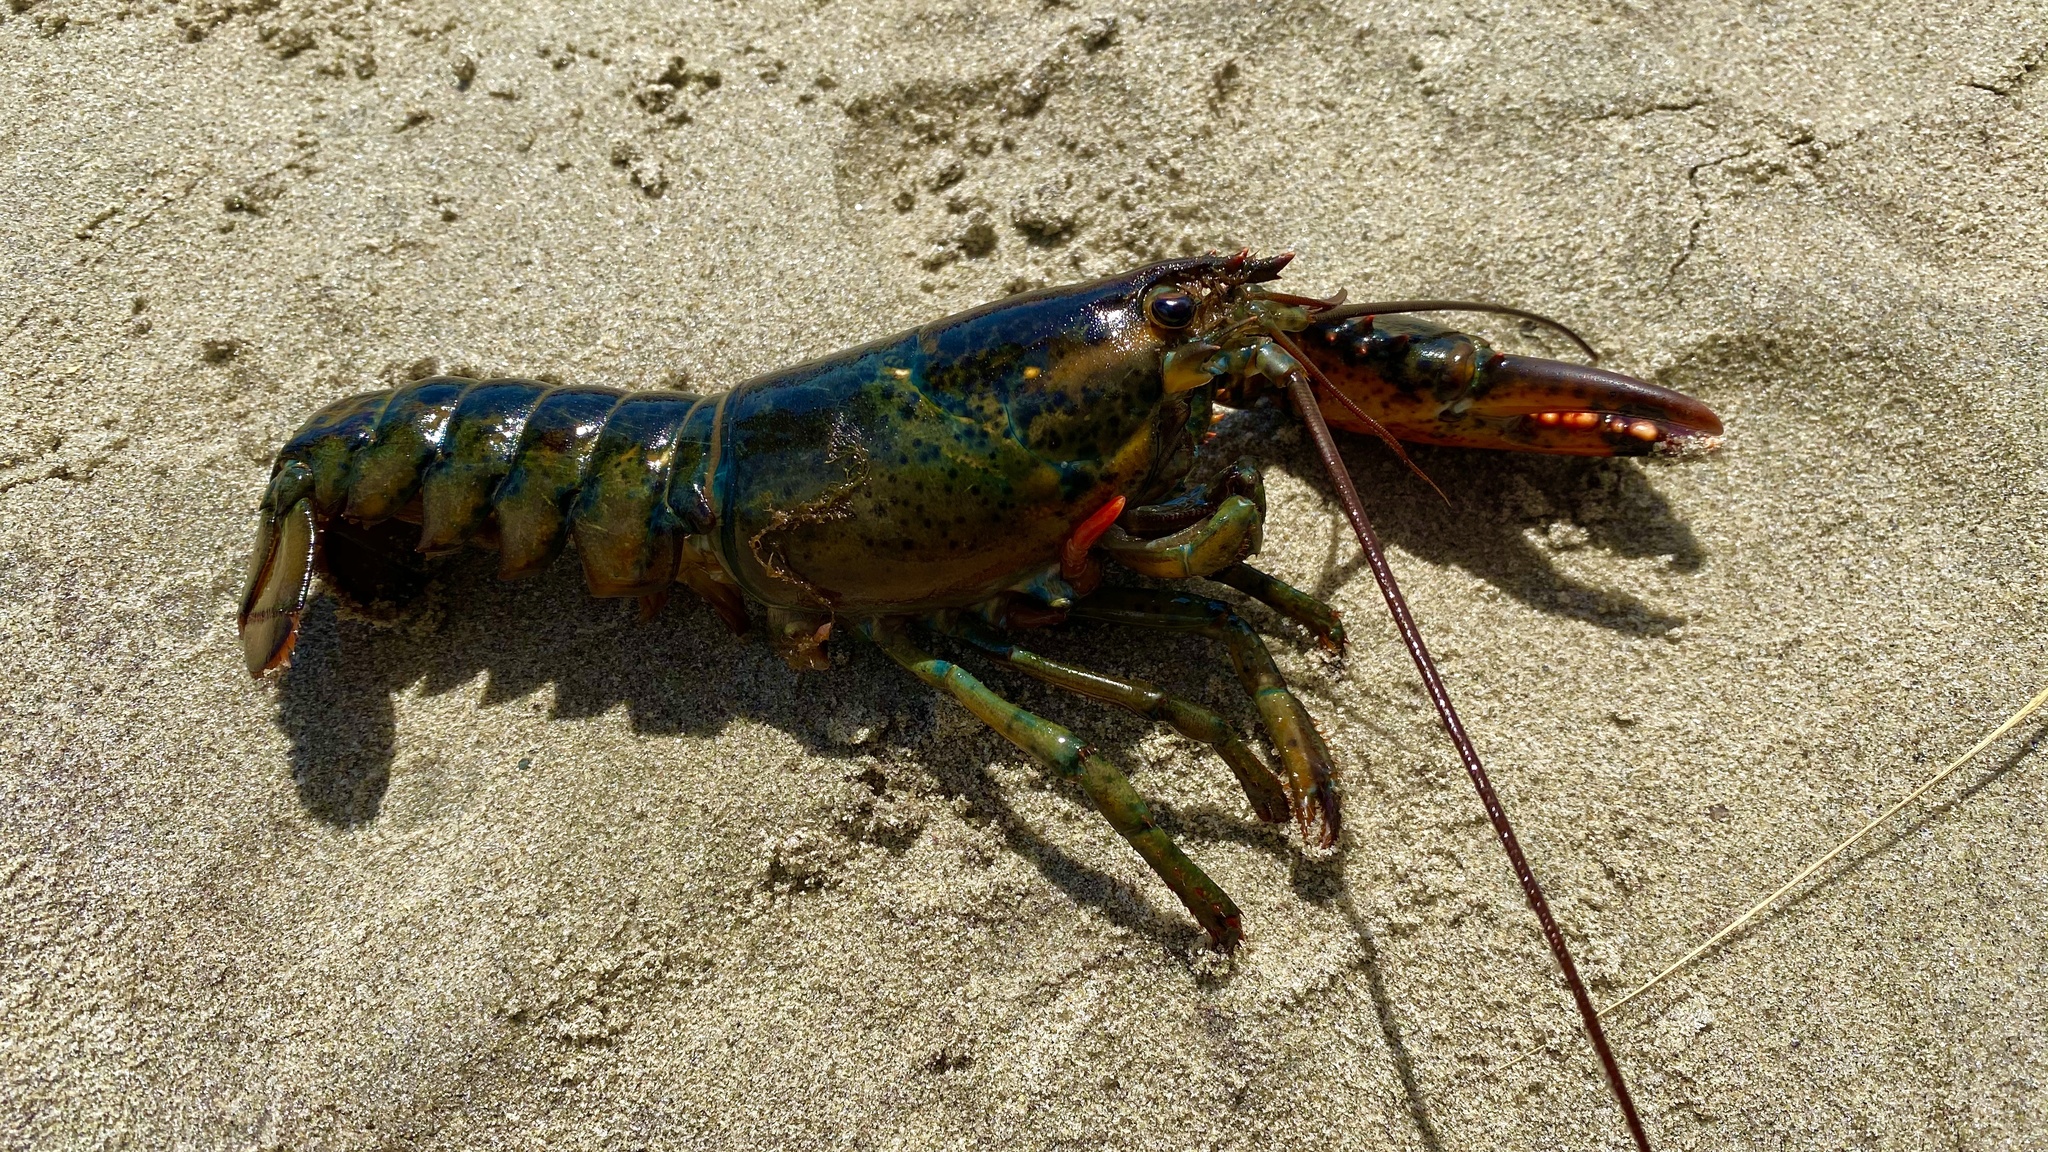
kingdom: Animalia
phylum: Arthropoda
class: Malacostraca
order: Decapoda
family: Nephropidae
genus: Homarus
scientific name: Homarus americanus
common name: American lobster
